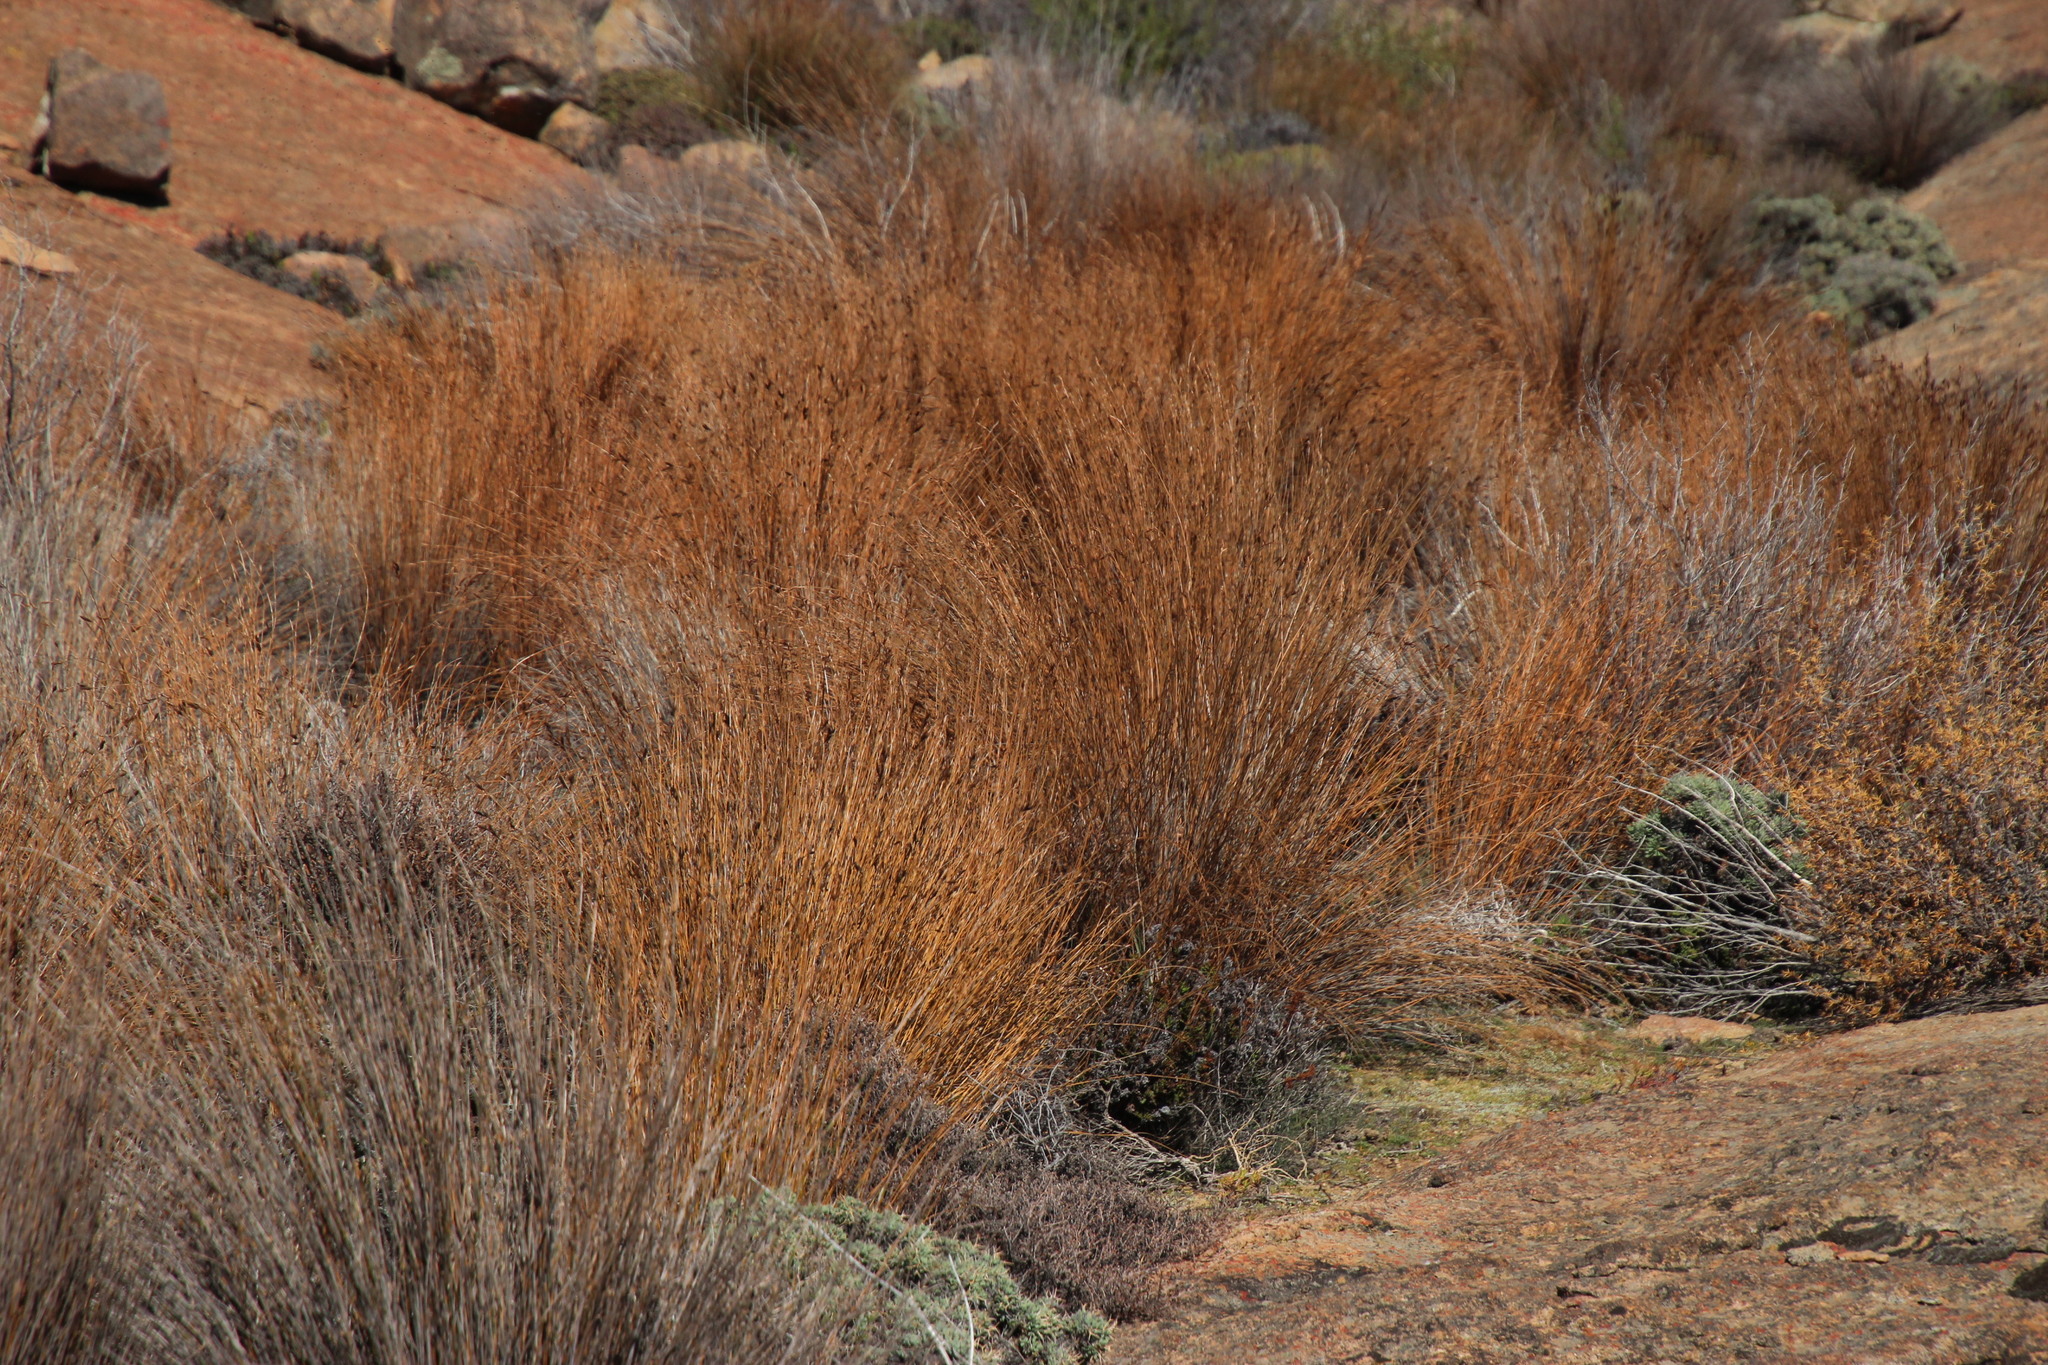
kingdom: Plantae
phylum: Tracheophyta
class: Liliopsida
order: Poales
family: Restionaceae
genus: Restio
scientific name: Restio vilis
